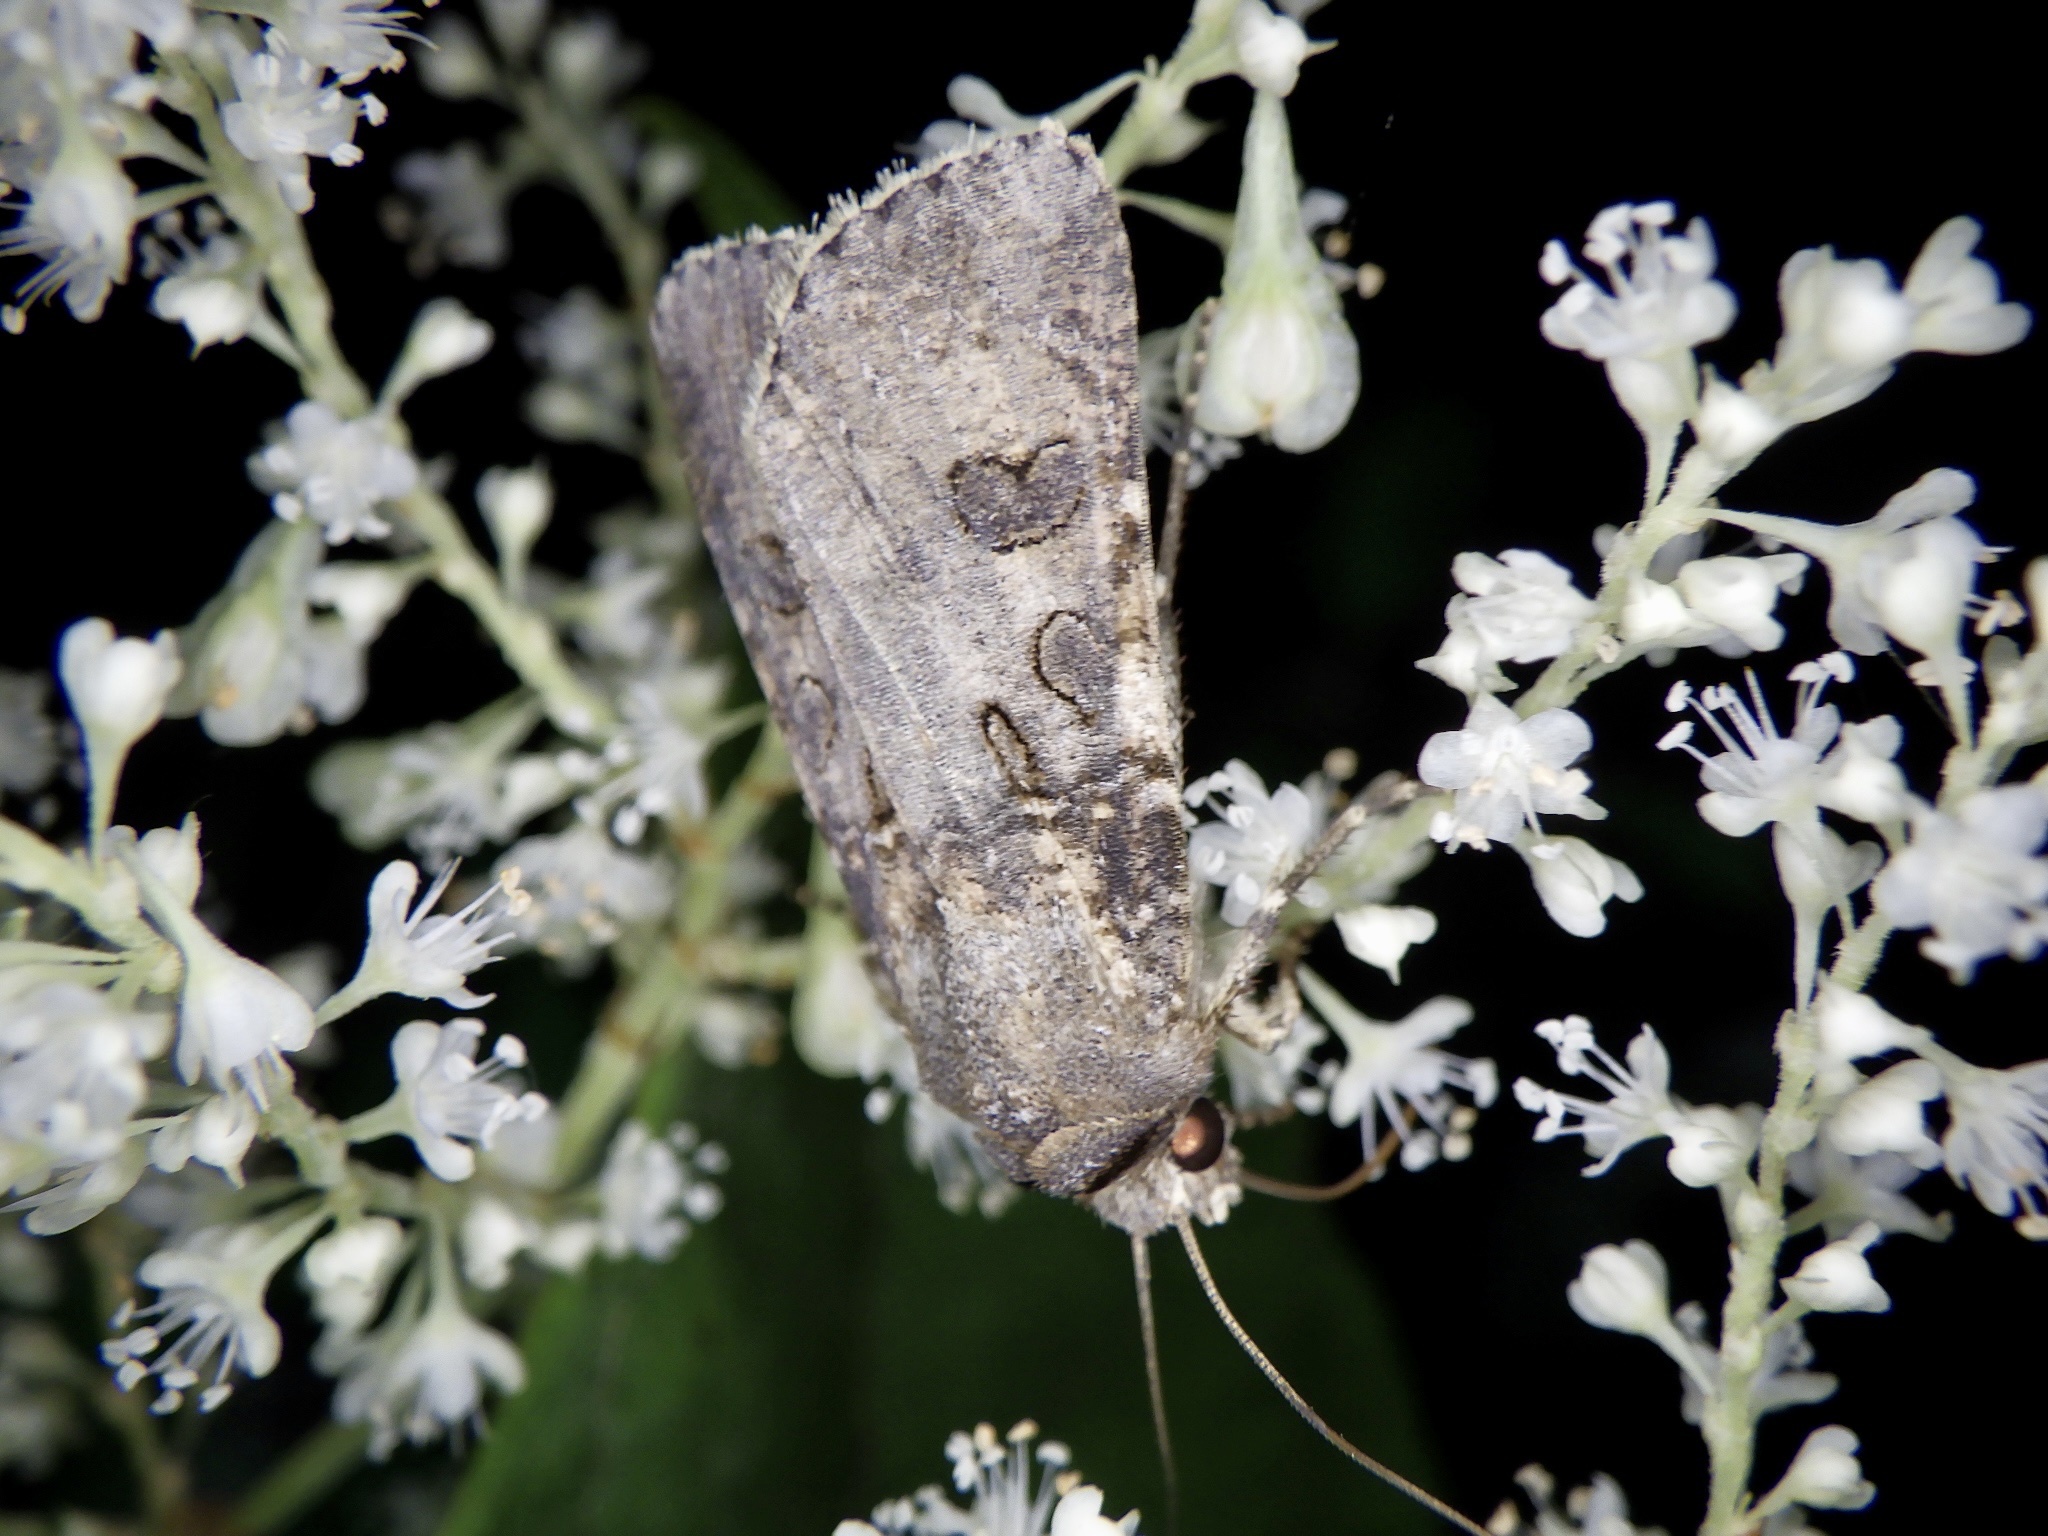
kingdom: Animalia
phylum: Arthropoda
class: Insecta
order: Lepidoptera
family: Noctuidae
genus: Agrotis
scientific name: Agrotis segetum
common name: Turnip moth
